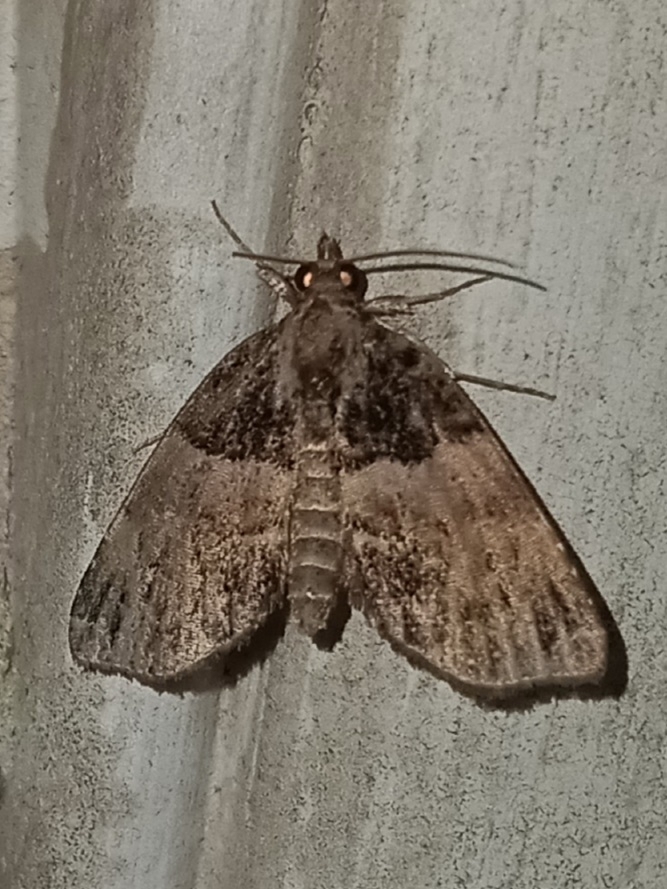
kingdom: Animalia
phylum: Arthropoda
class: Insecta
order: Lepidoptera
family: Erebidae
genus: Cutina
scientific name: Cutina distincta
